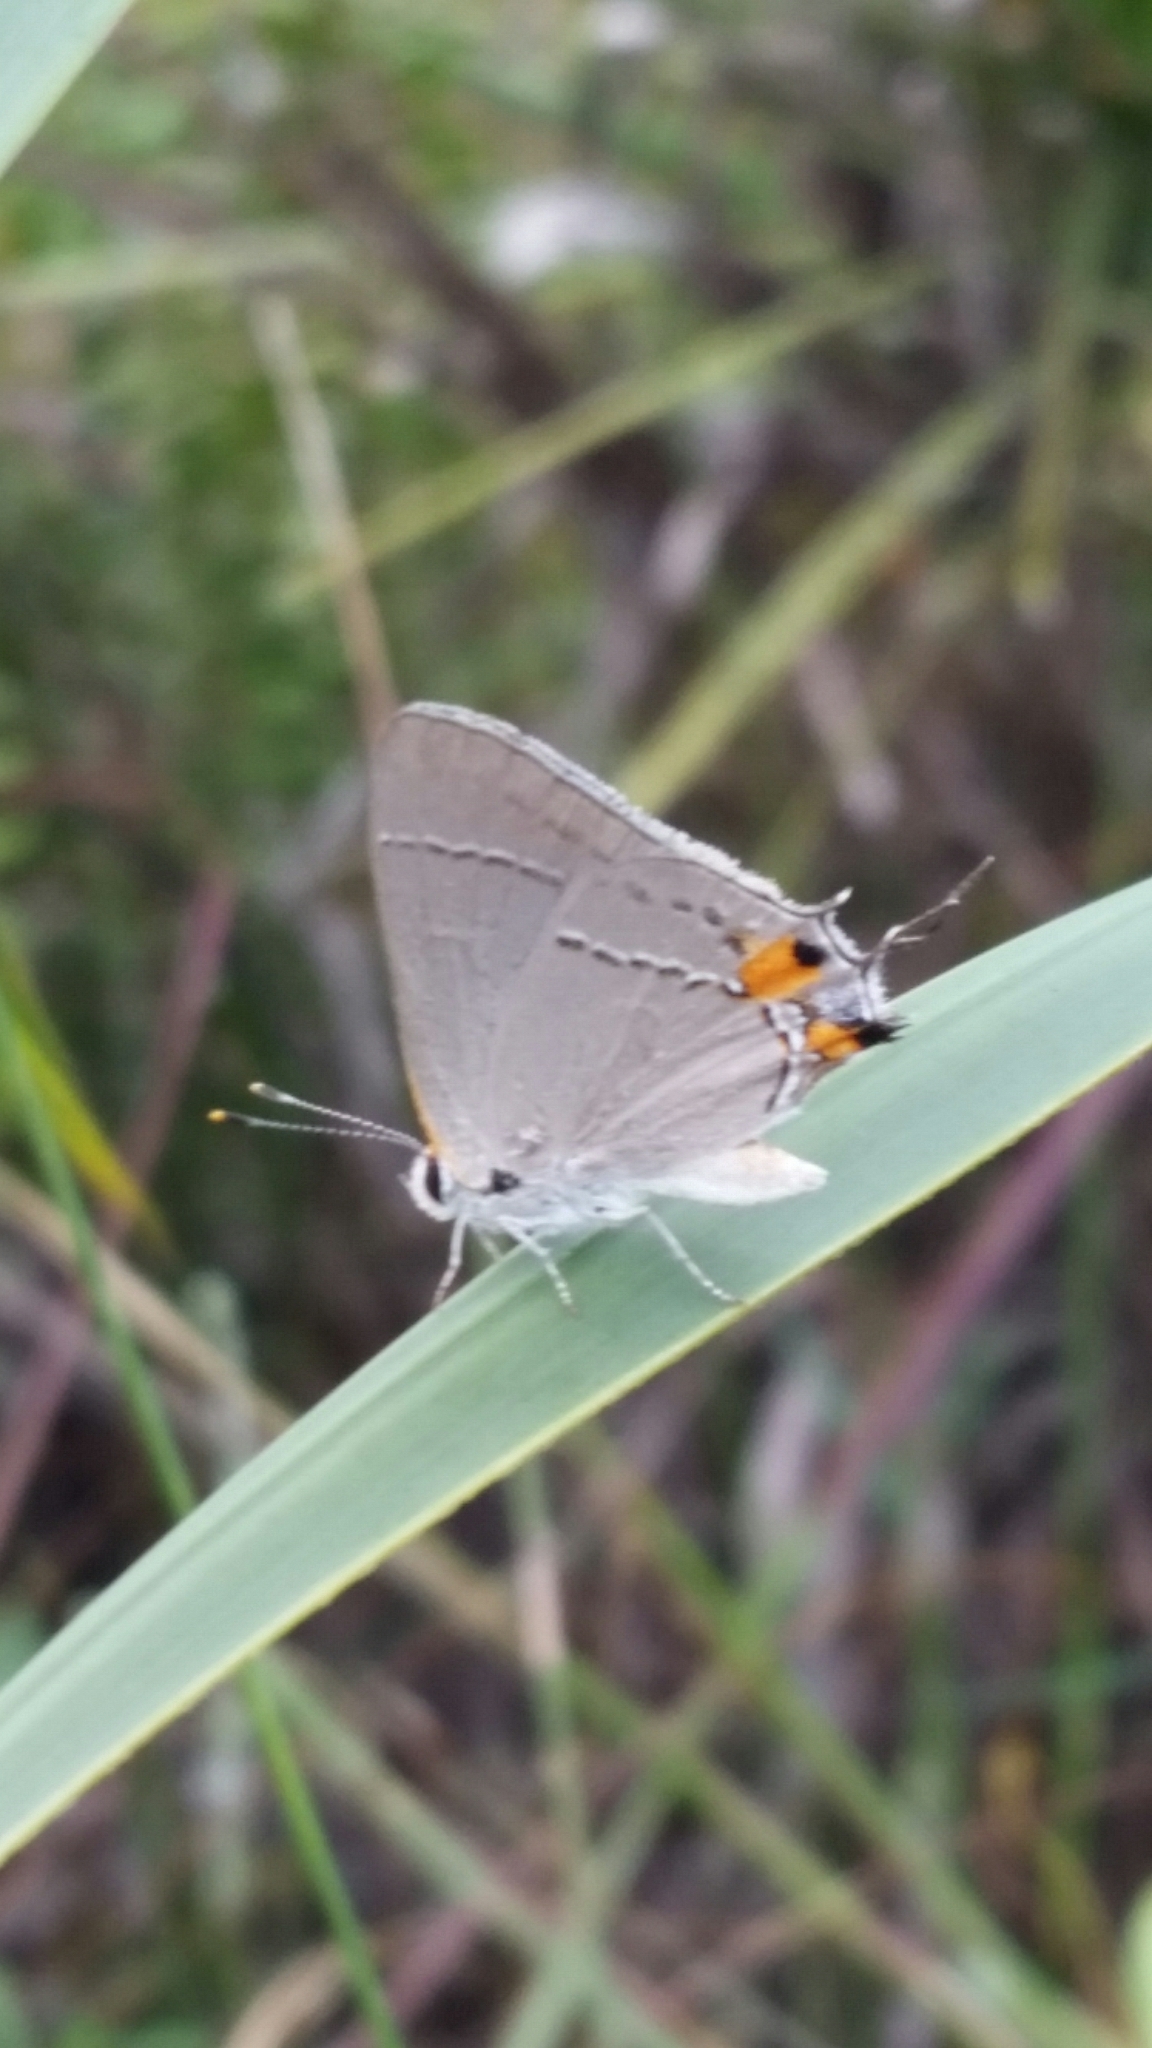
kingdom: Animalia
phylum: Arthropoda
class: Insecta
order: Lepidoptera
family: Lycaenidae
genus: Strymon
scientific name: Strymon melinus
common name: Gray hairstreak
